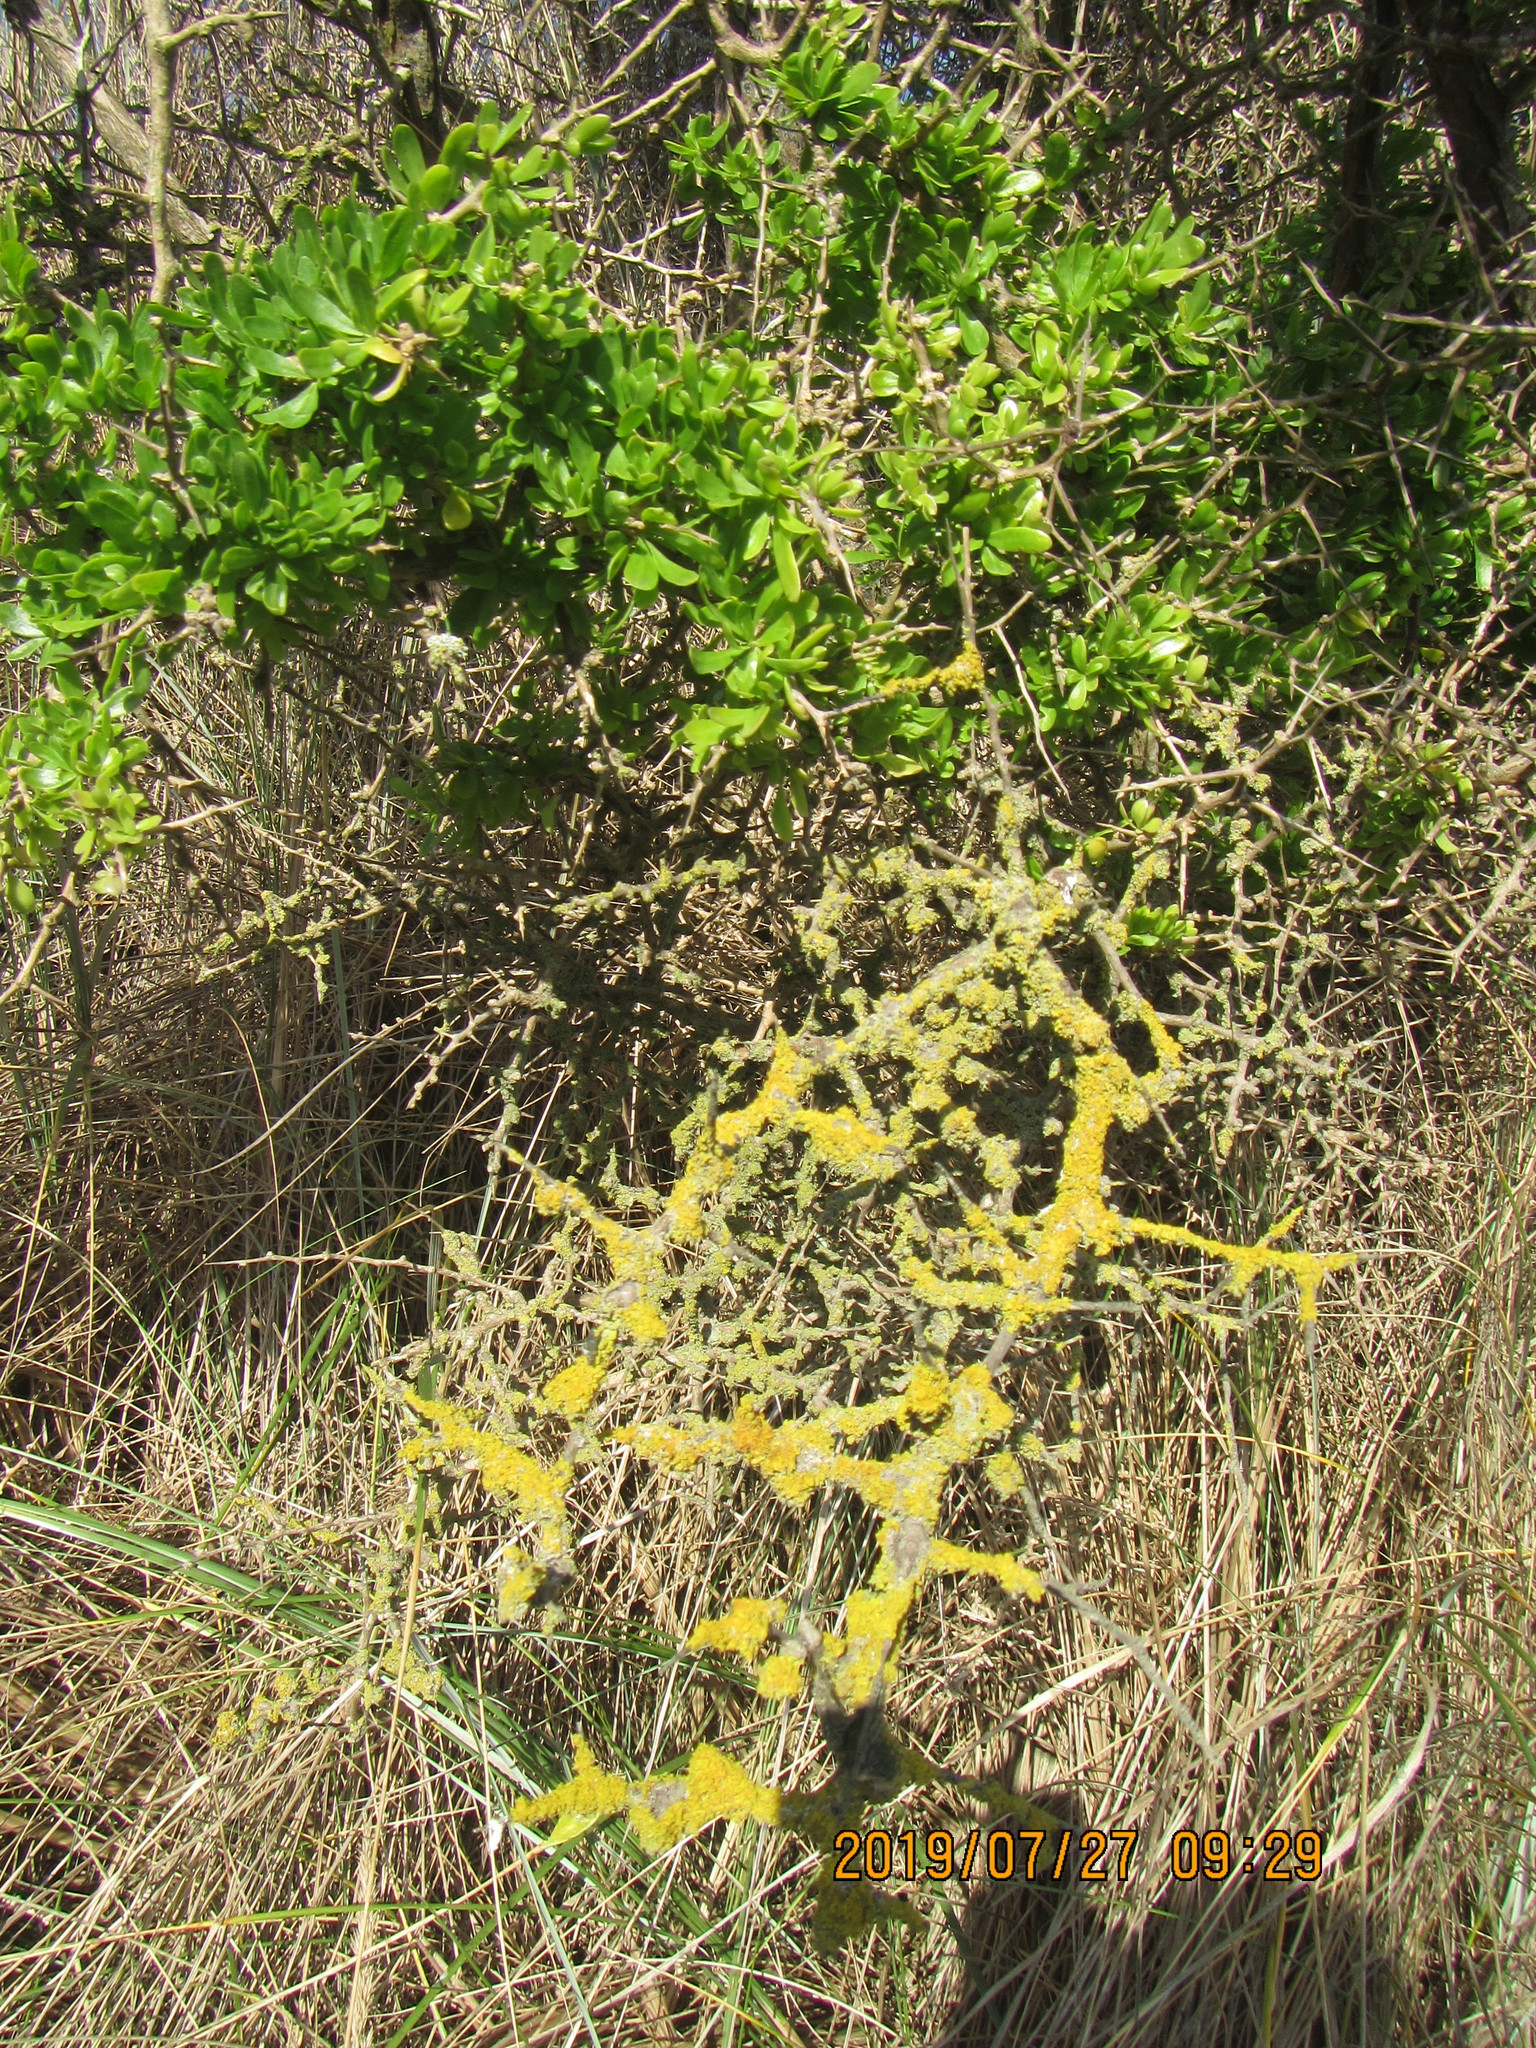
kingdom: Plantae
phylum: Tracheophyta
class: Magnoliopsida
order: Solanales
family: Solanaceae
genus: Lycium
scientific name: Lycium ferocissimum
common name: African boxthorn
